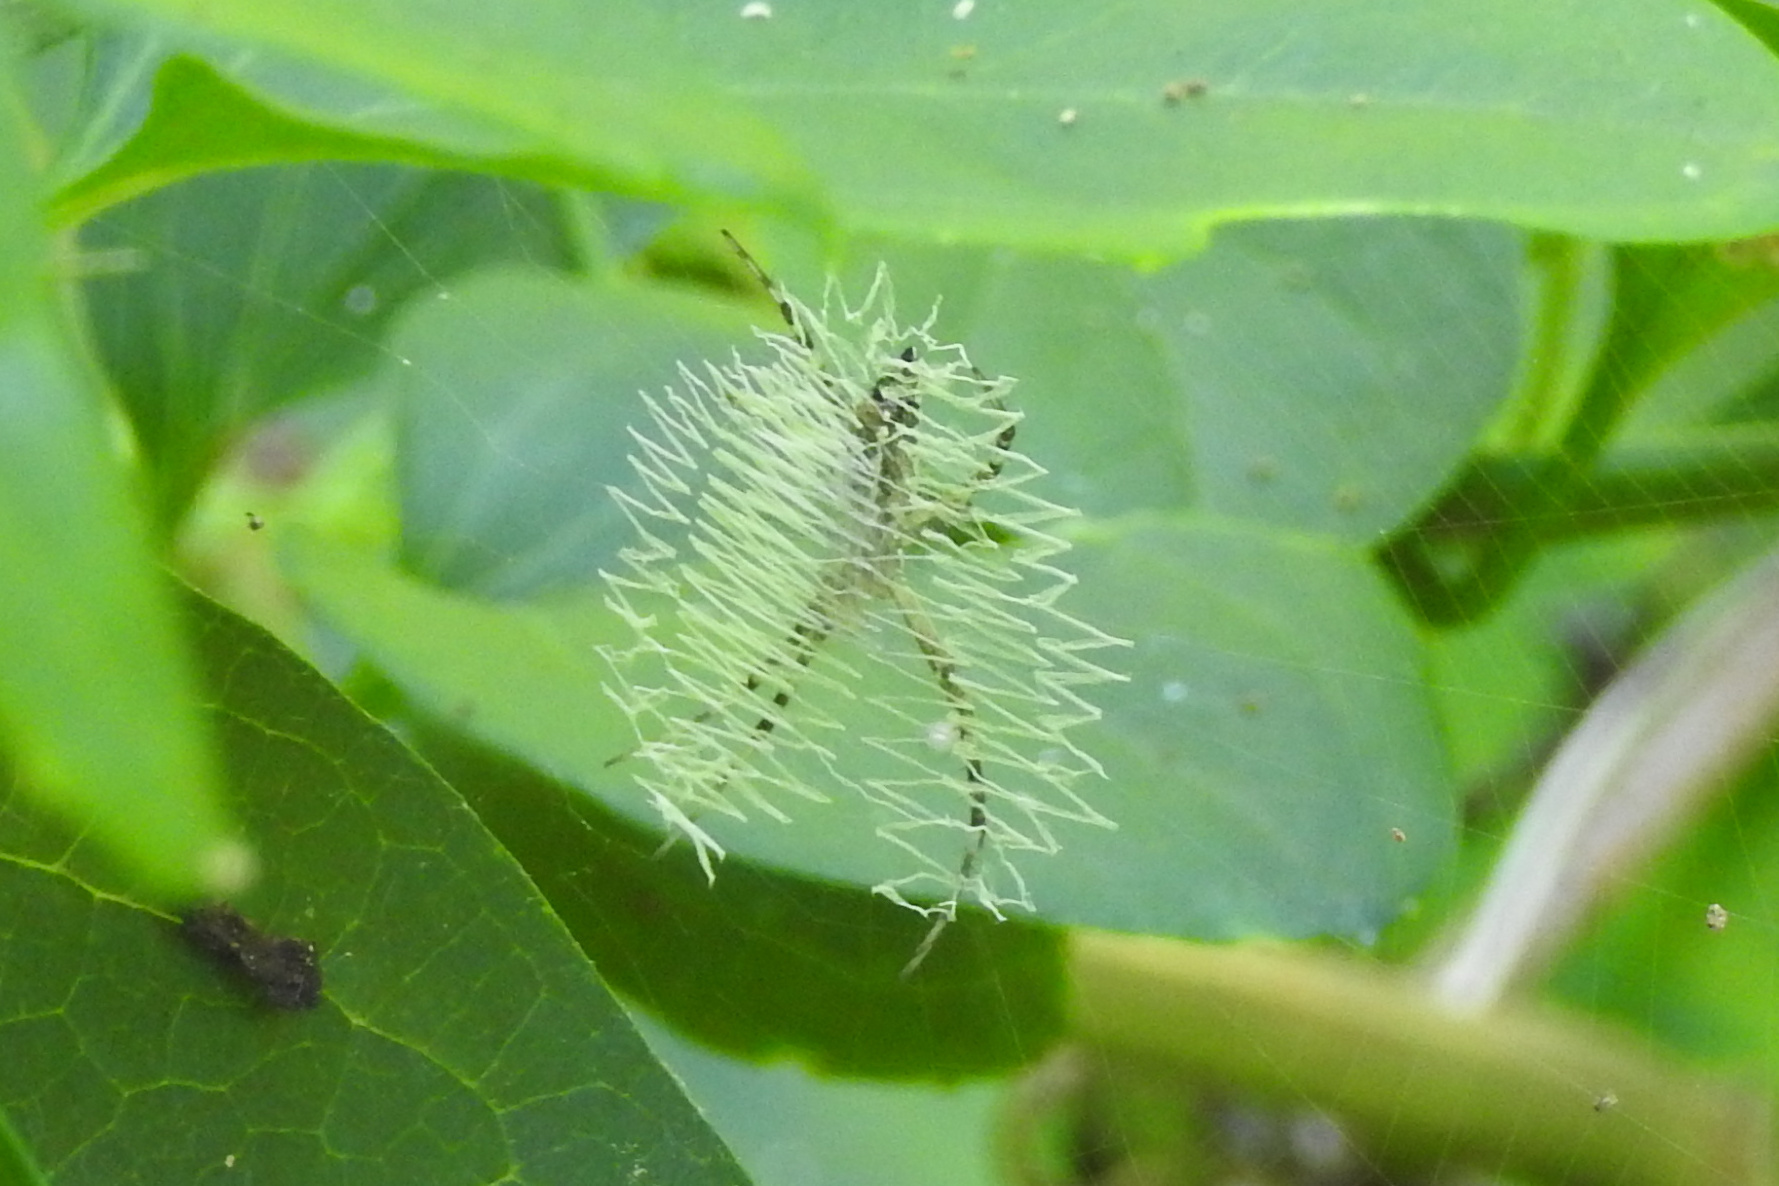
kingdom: Animalia
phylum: Arthropoda
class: Arachnida
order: Araneae
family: Araneidae
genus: Argiope
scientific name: Argiope aurantia
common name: Orb weavers
